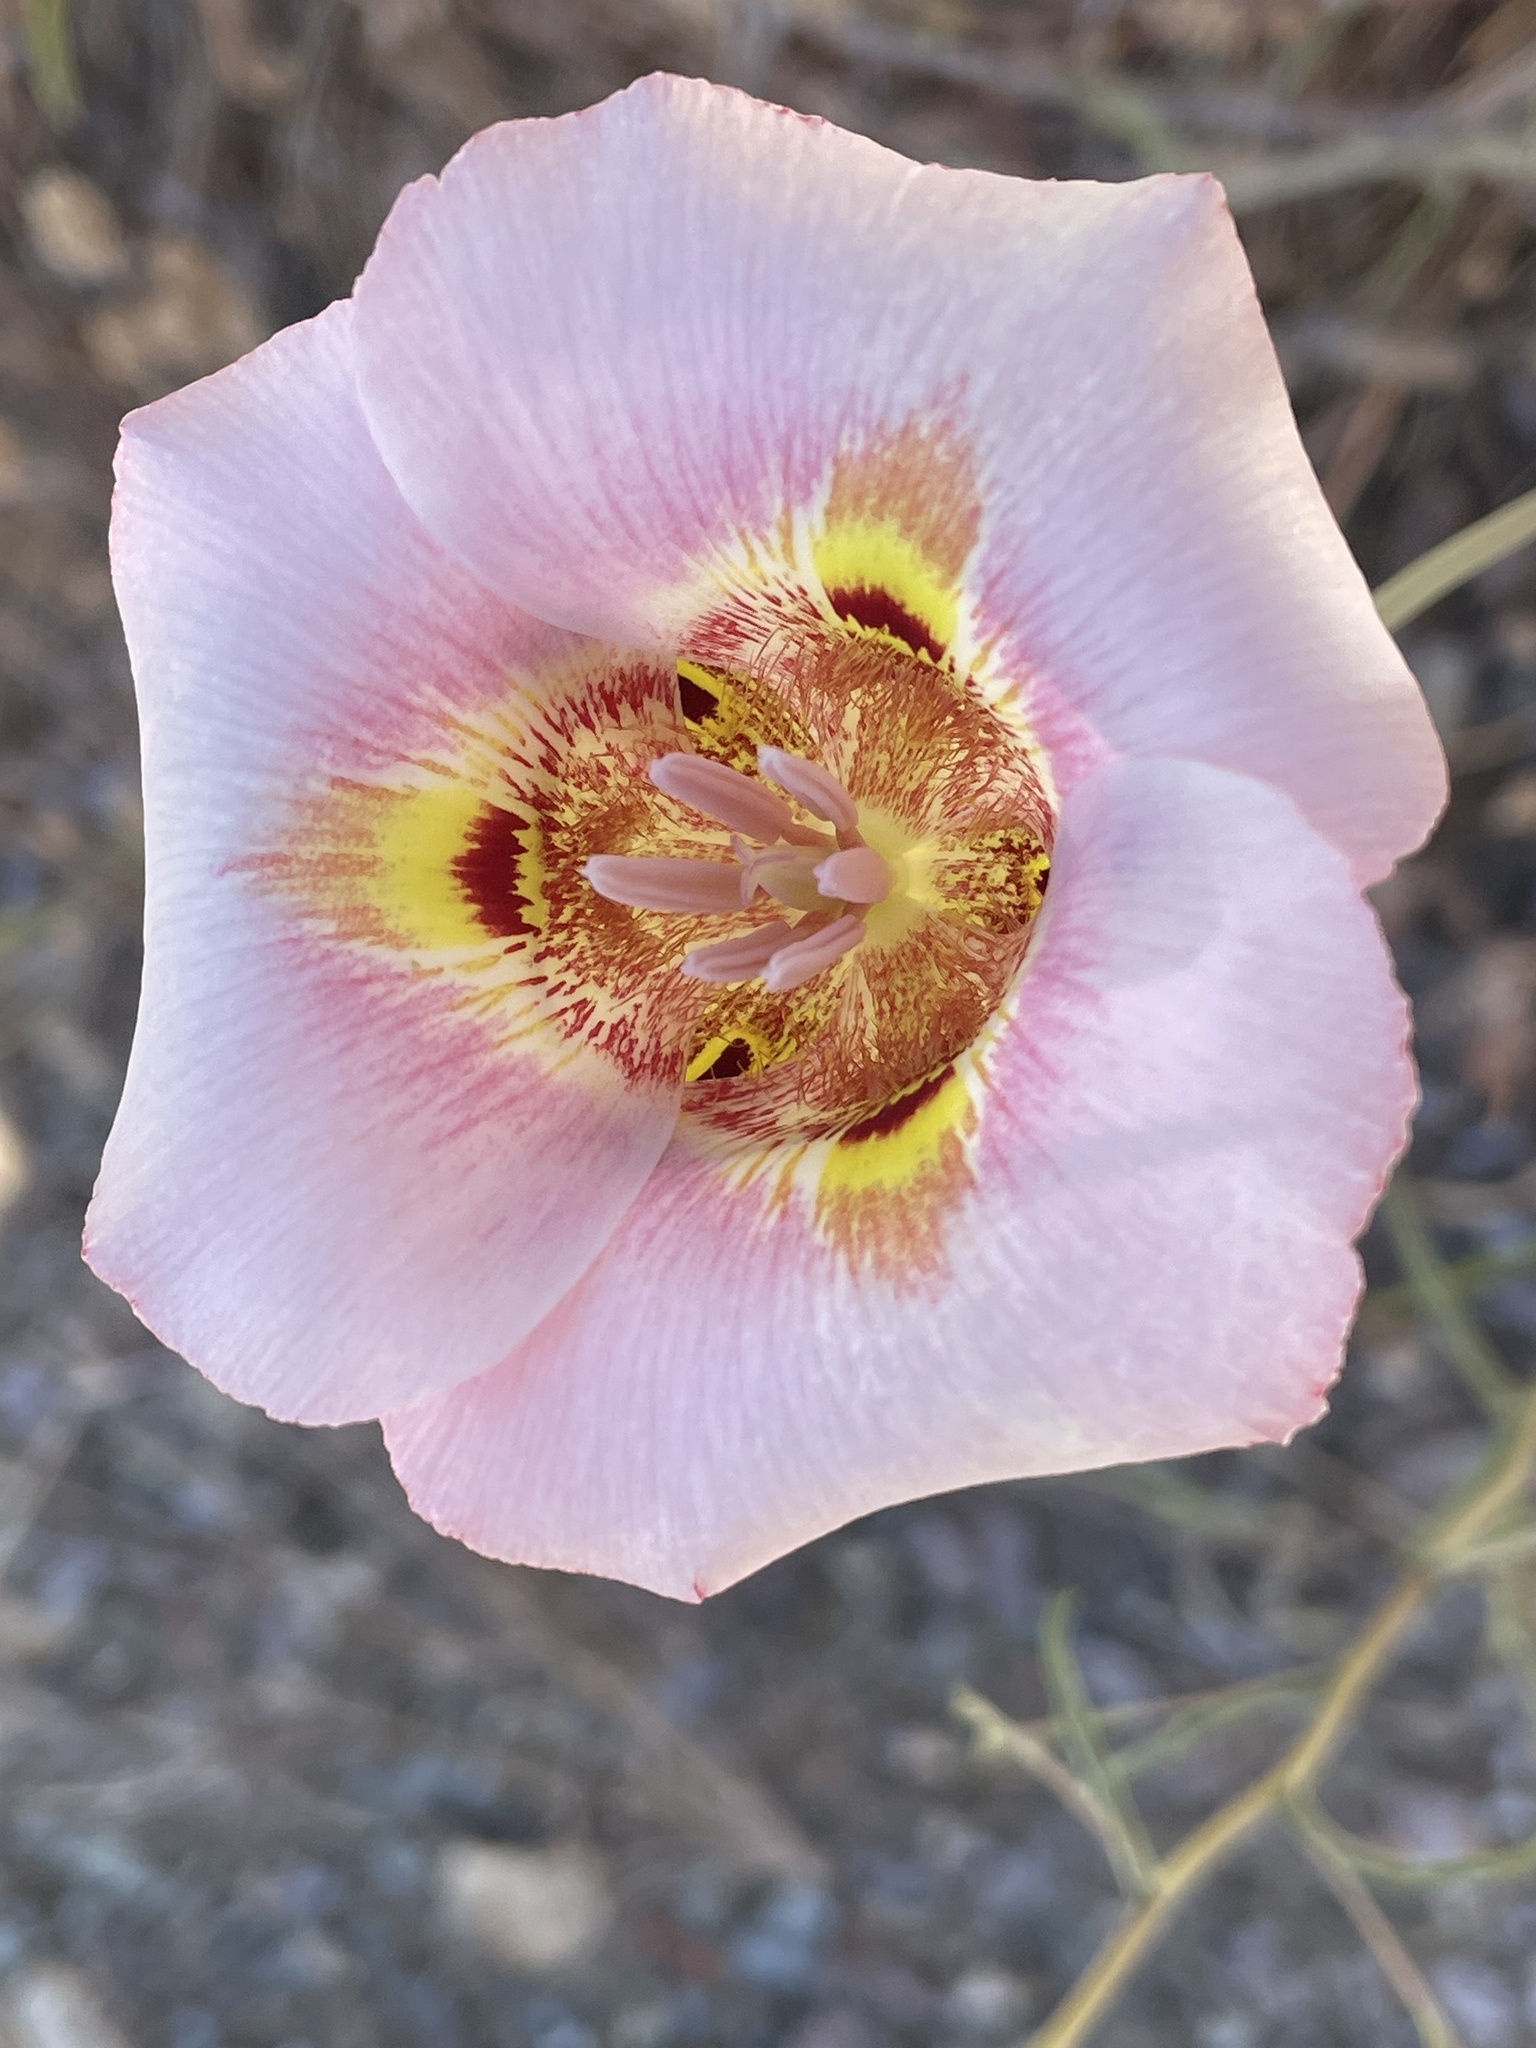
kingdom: Plantae
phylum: Tracheophyta
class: Liliopsida
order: Liliales
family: Liliaceae
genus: Calochortus
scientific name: Calochortus argillosus
